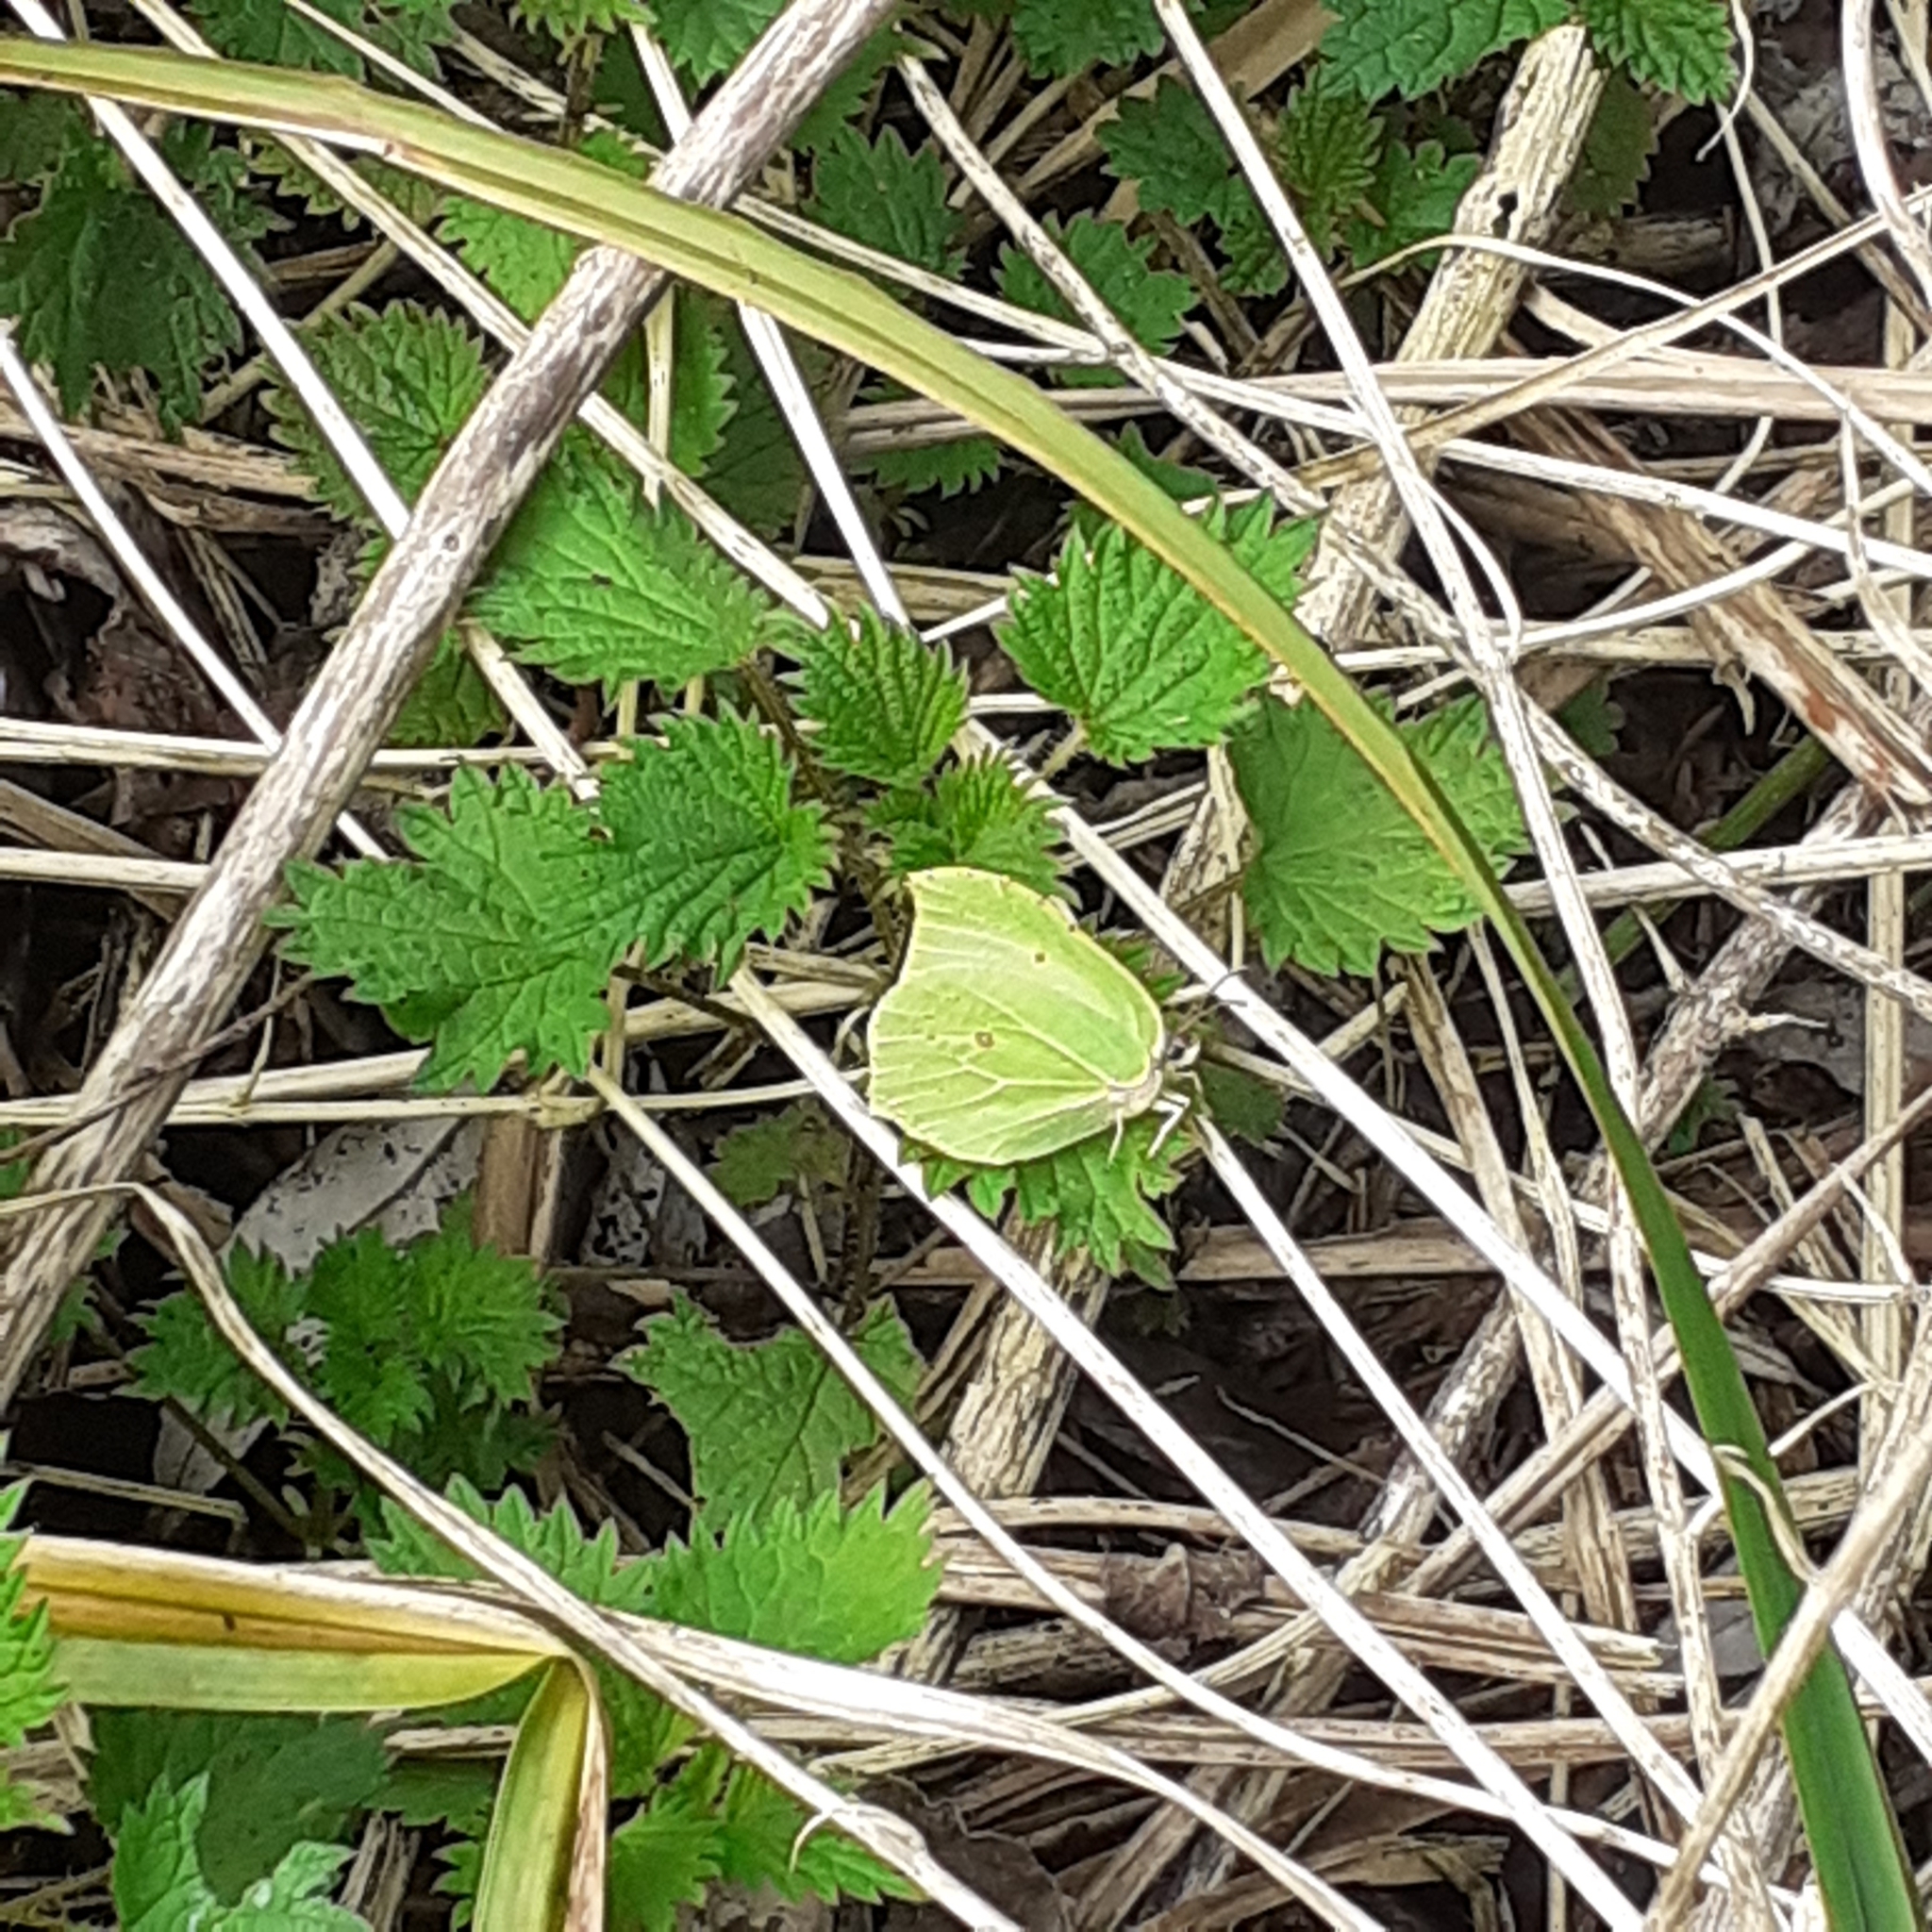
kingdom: Animalia
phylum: Arthropoda
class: Insecta
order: Lepidoptera
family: Pieridae
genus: Gonepteryx
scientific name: Gonepteryx rhamni
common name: Brimstone
